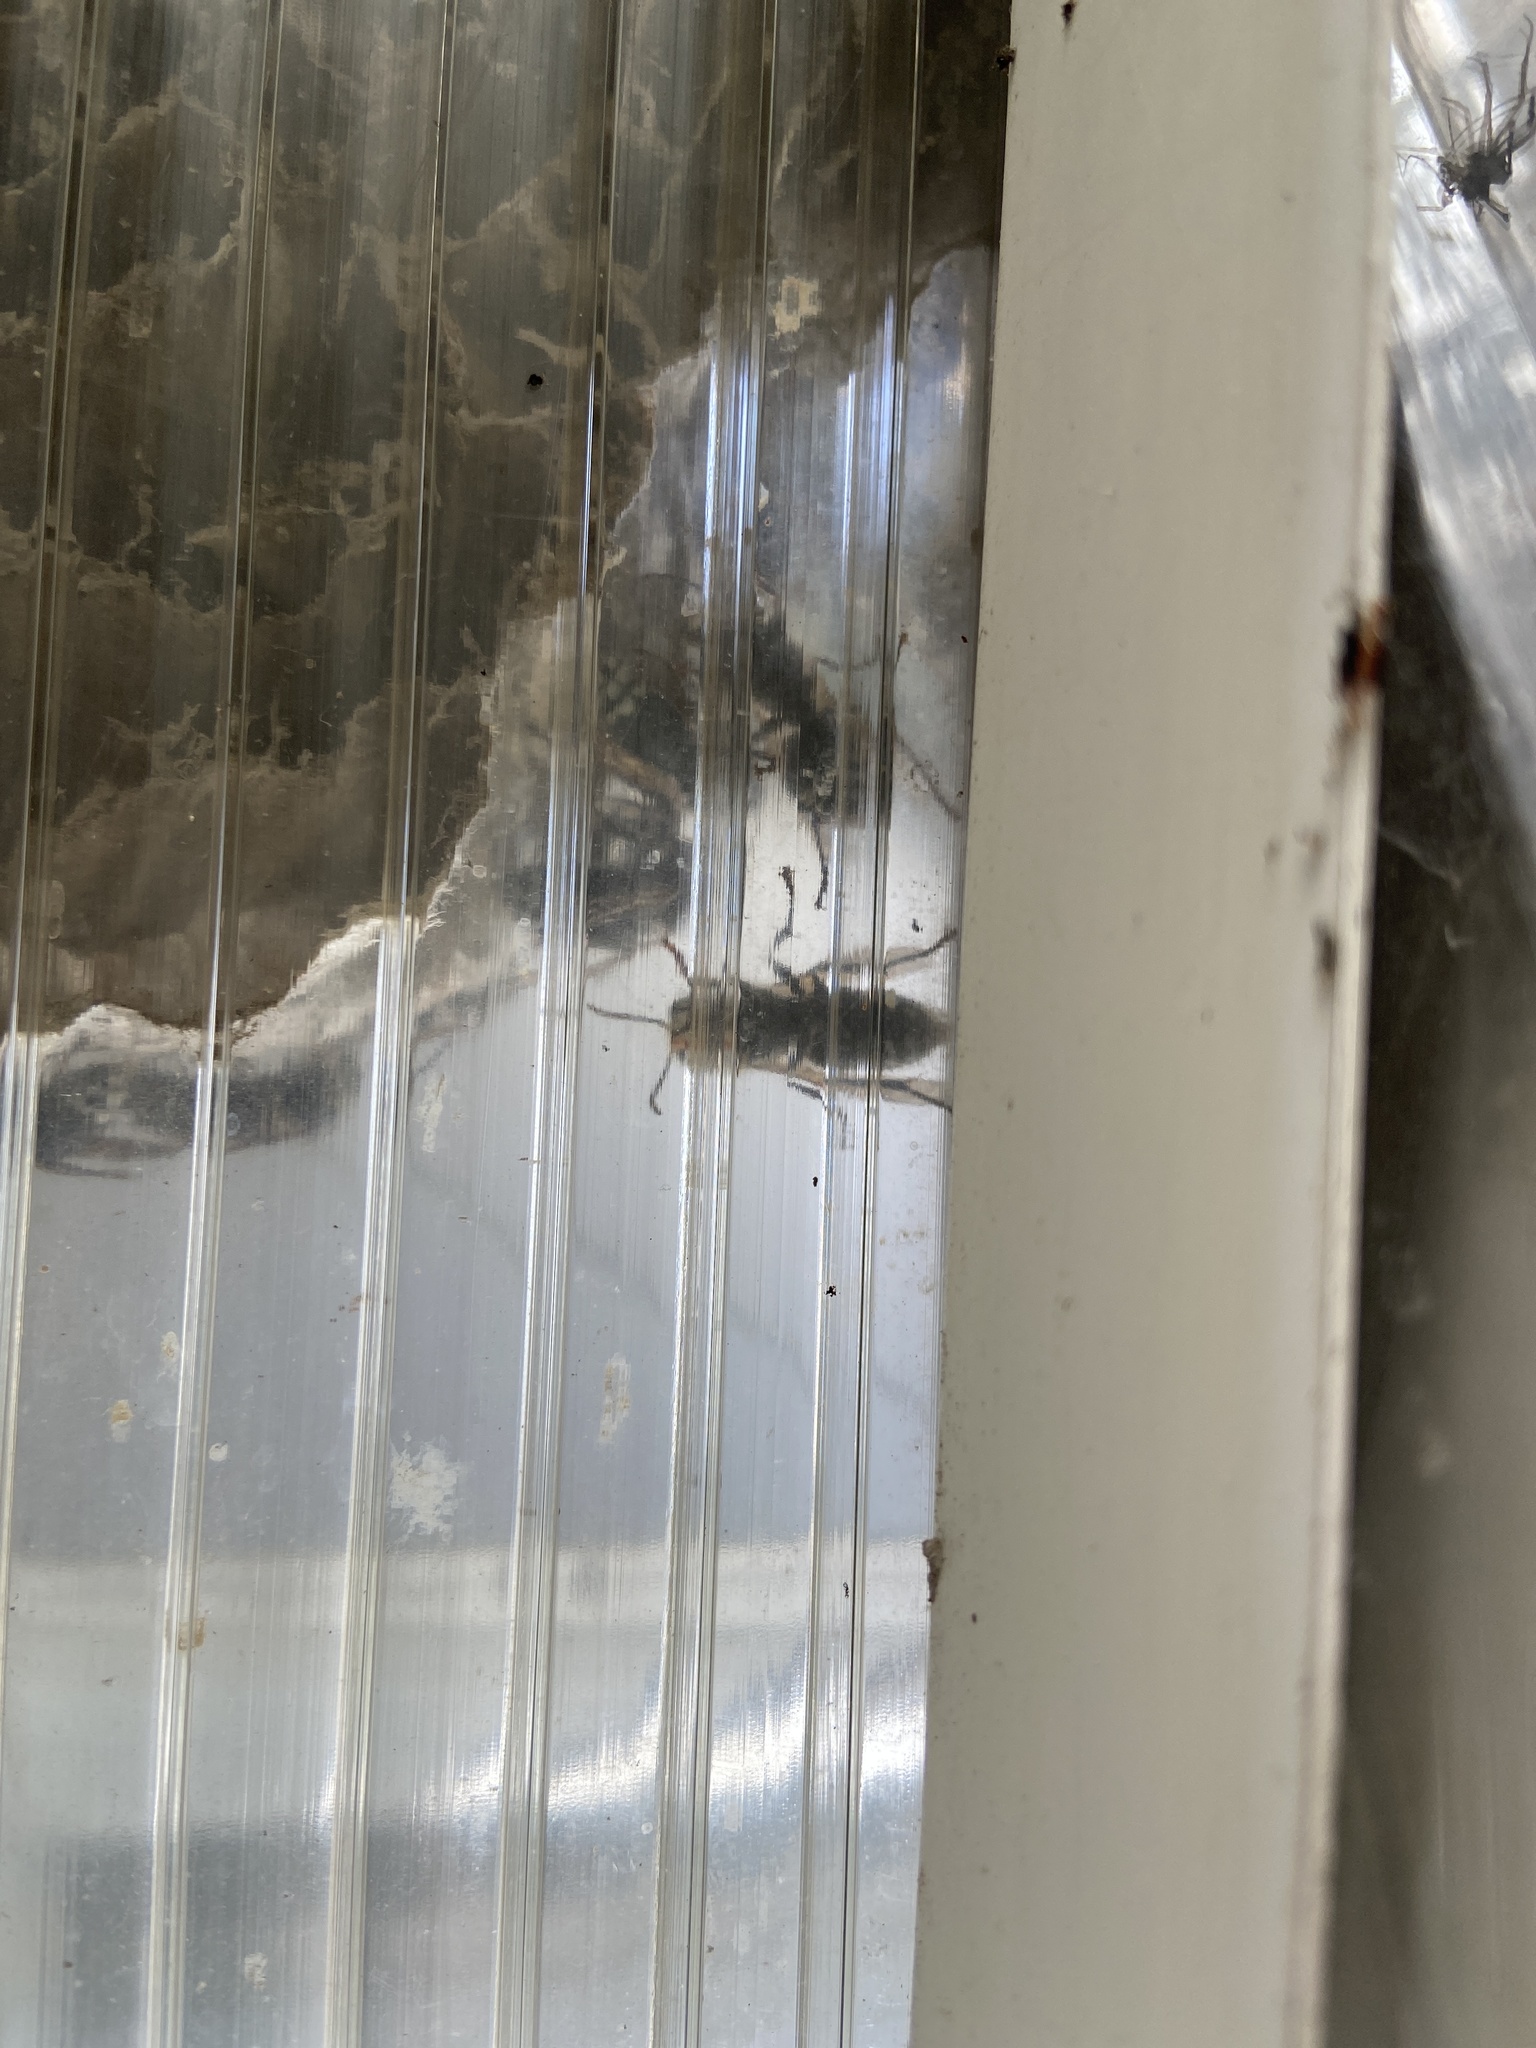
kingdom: Animalia
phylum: Arthropoda
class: Insecta
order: Hymenoptera
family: Vespidae
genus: Dolichovespula
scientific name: Dolichovespula maculata
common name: Bald-faced hornet
